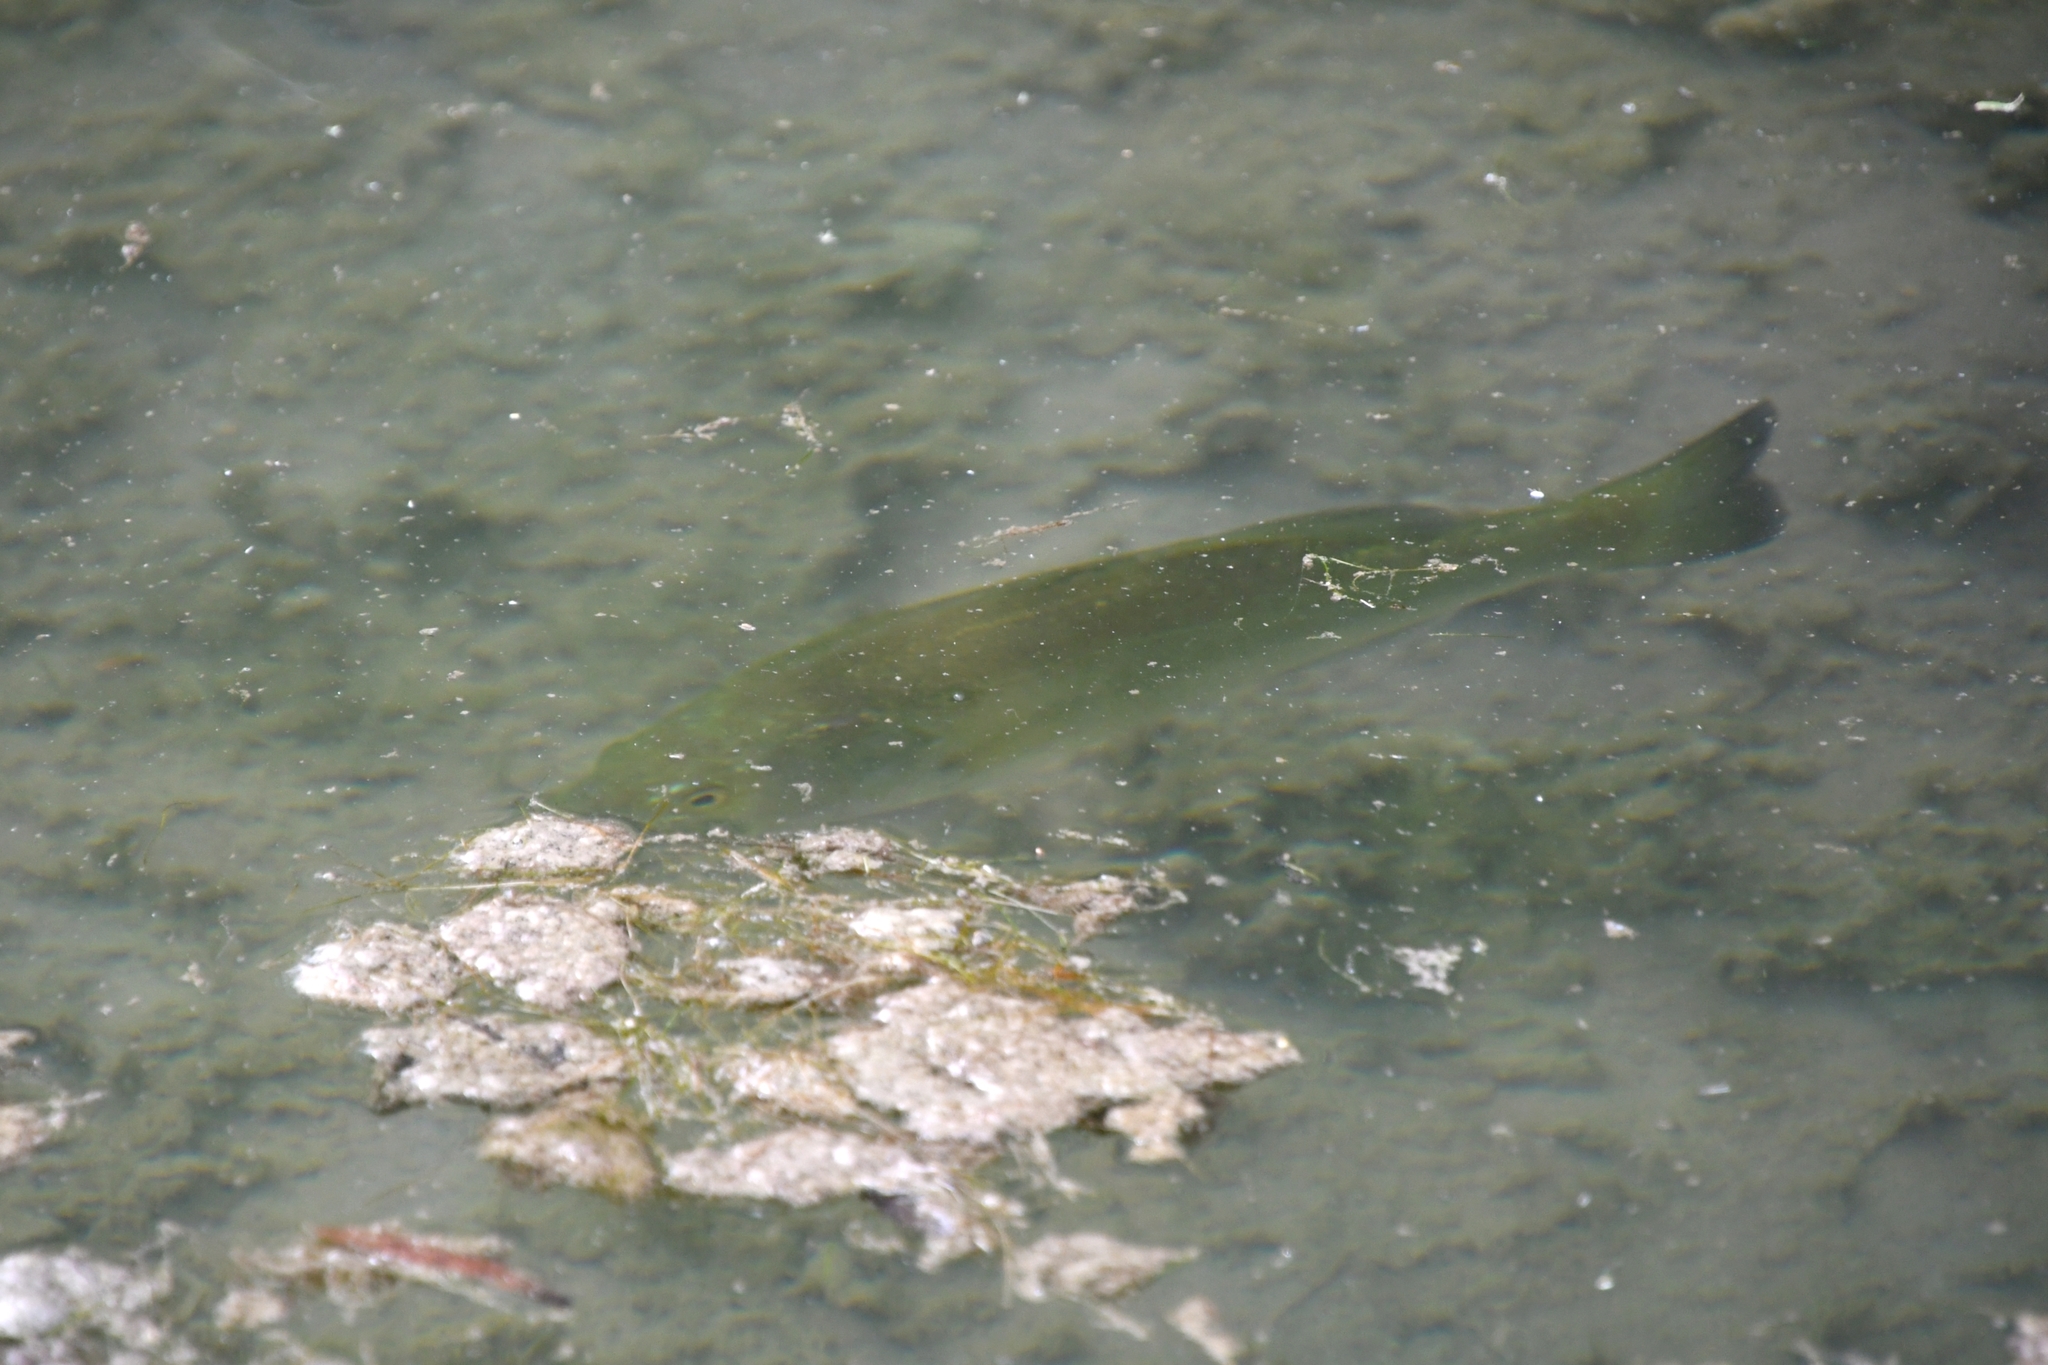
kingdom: Animalia
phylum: Chordata
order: Perciformes
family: Centrarchidae
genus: Micropterus
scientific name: Micropterus
